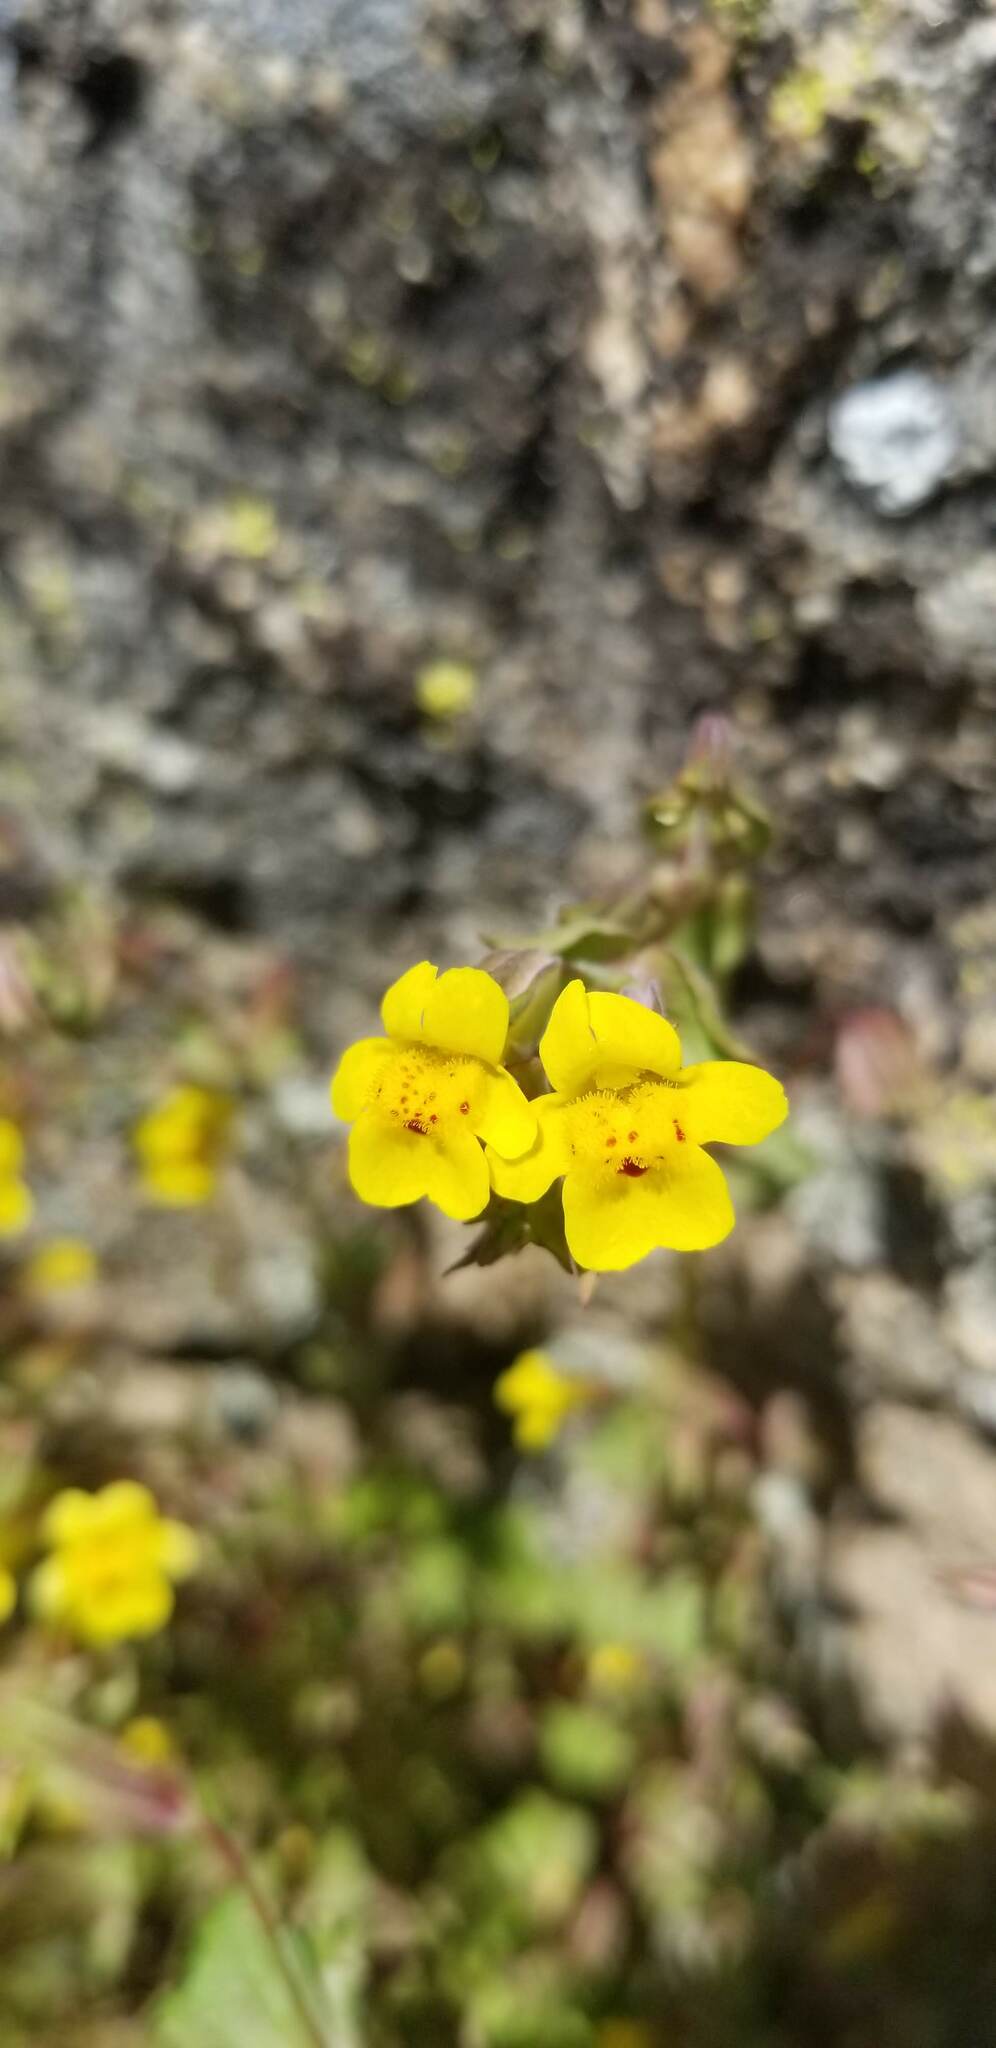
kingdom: Plantae
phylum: Tracheophyta
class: Magnoliopsida
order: Lamiales
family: Phrymaceae
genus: Erythranthe
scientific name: Erythranthe nasuta
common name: Sooke monkeyflower
